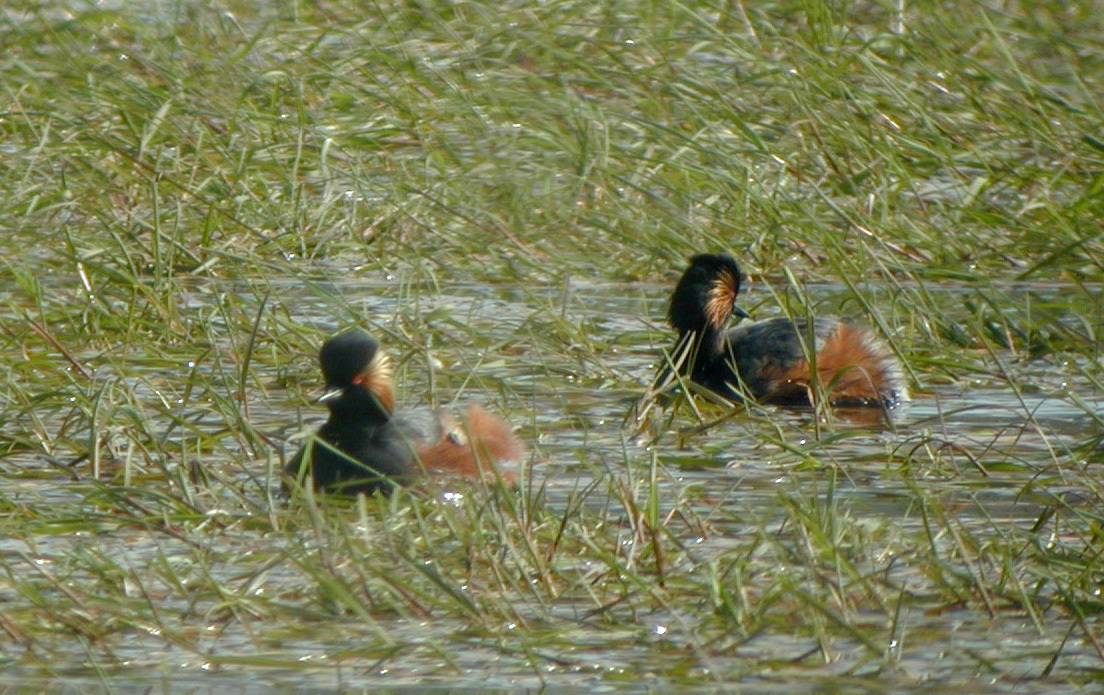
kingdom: Animalia
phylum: Chordata
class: Aves
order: Podicipediformes
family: Podicipedidae
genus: Podiceps
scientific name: Podiceps nigricollis
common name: Black-necked grebe
